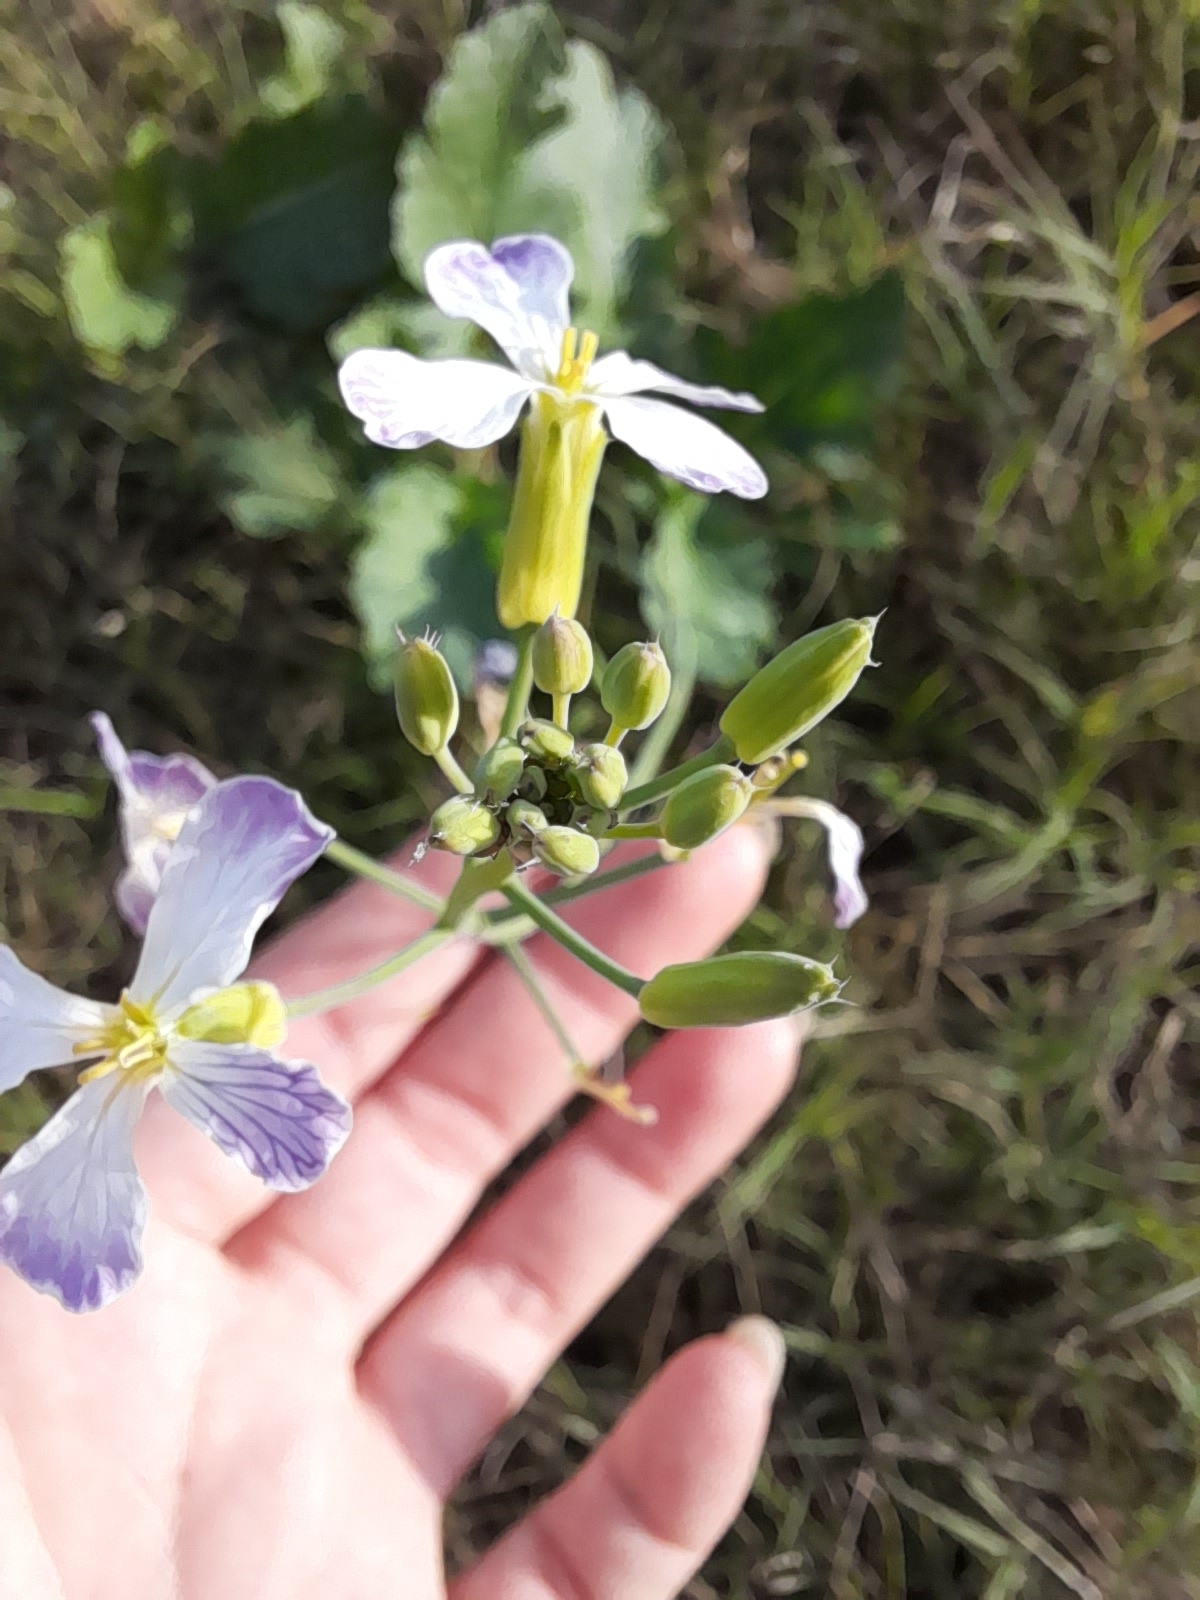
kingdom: Plantae
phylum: Tracheophyta
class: Magnoliopsida
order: Brassicales
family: Brassicaceae
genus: Raphanus
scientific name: Raphanus sativus
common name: Cultivated radish
